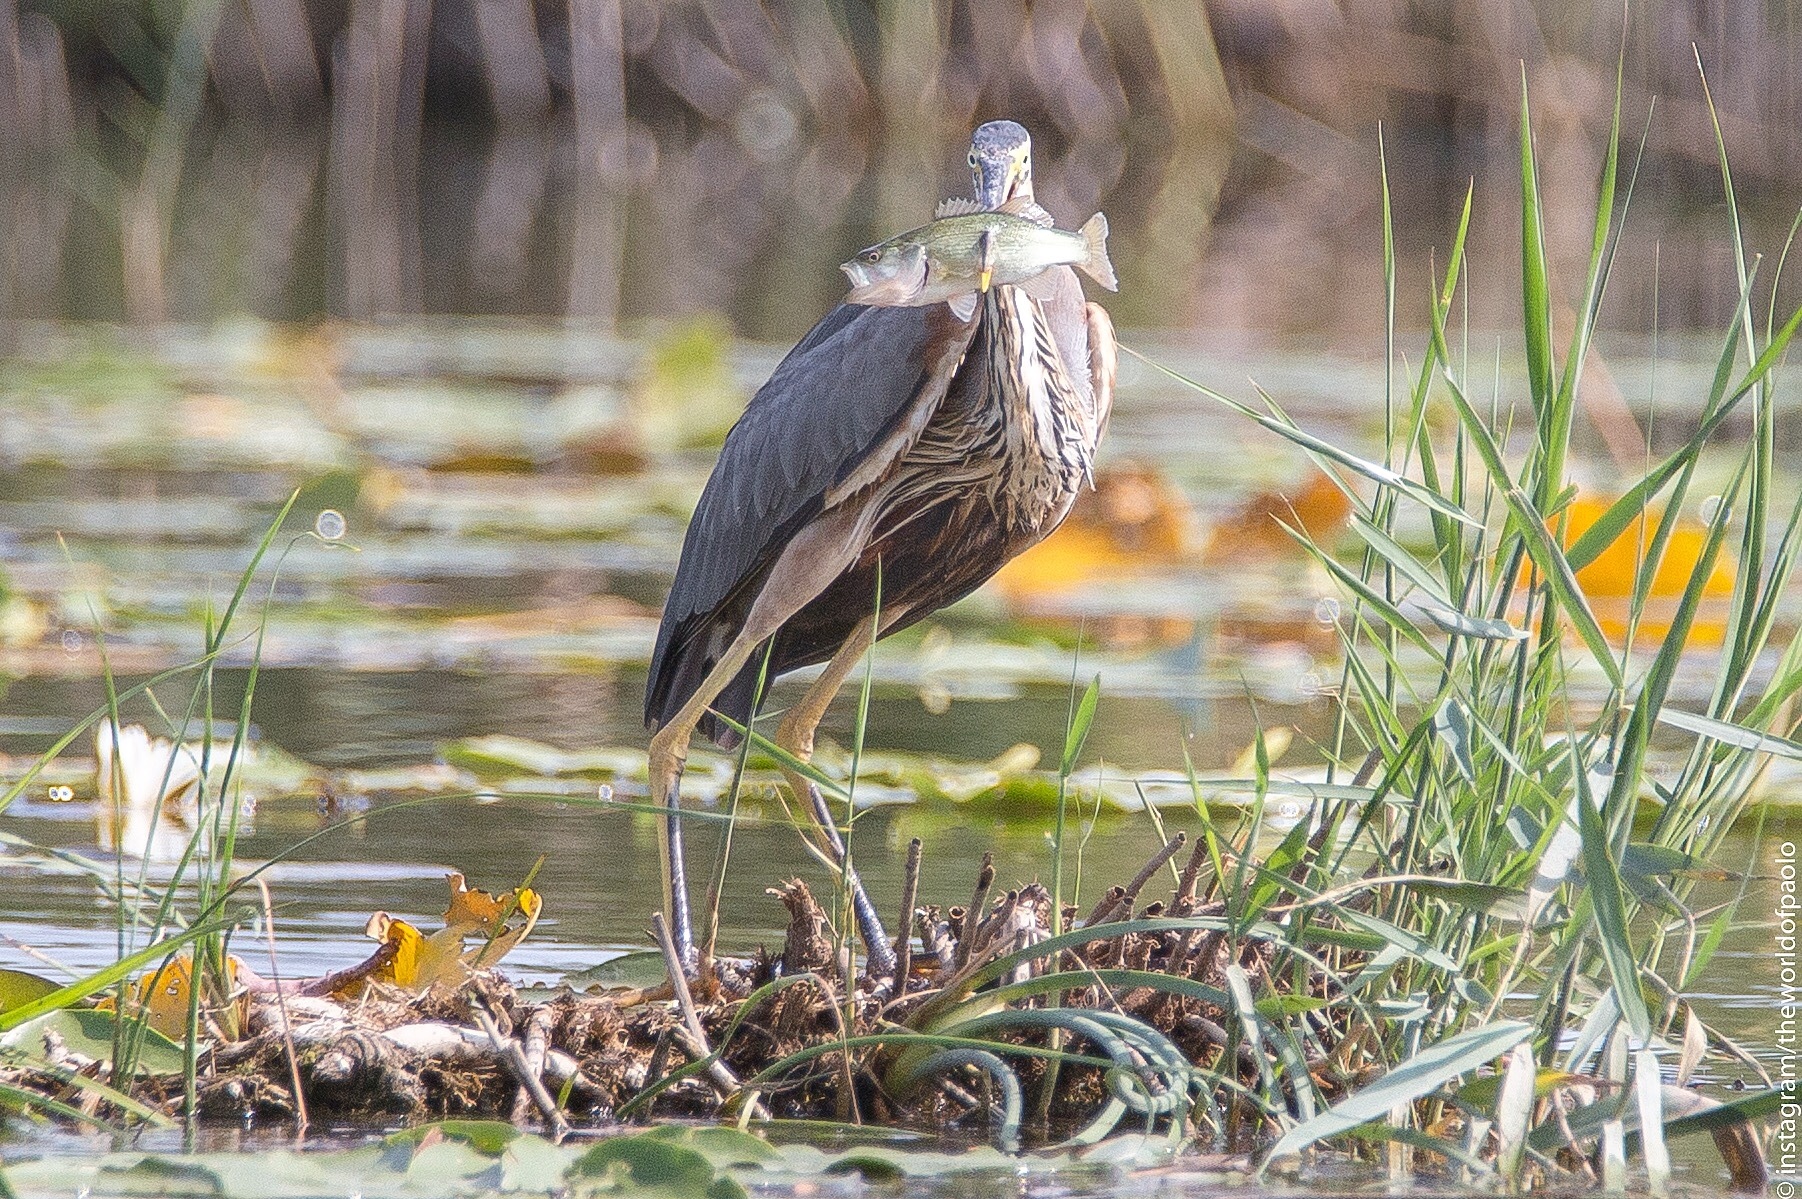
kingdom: Animalia
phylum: Chordata
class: Aves
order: Pelecaniformes
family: Ardeidae
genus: Ardea
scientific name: Ardea purpurea
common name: Purple heron
